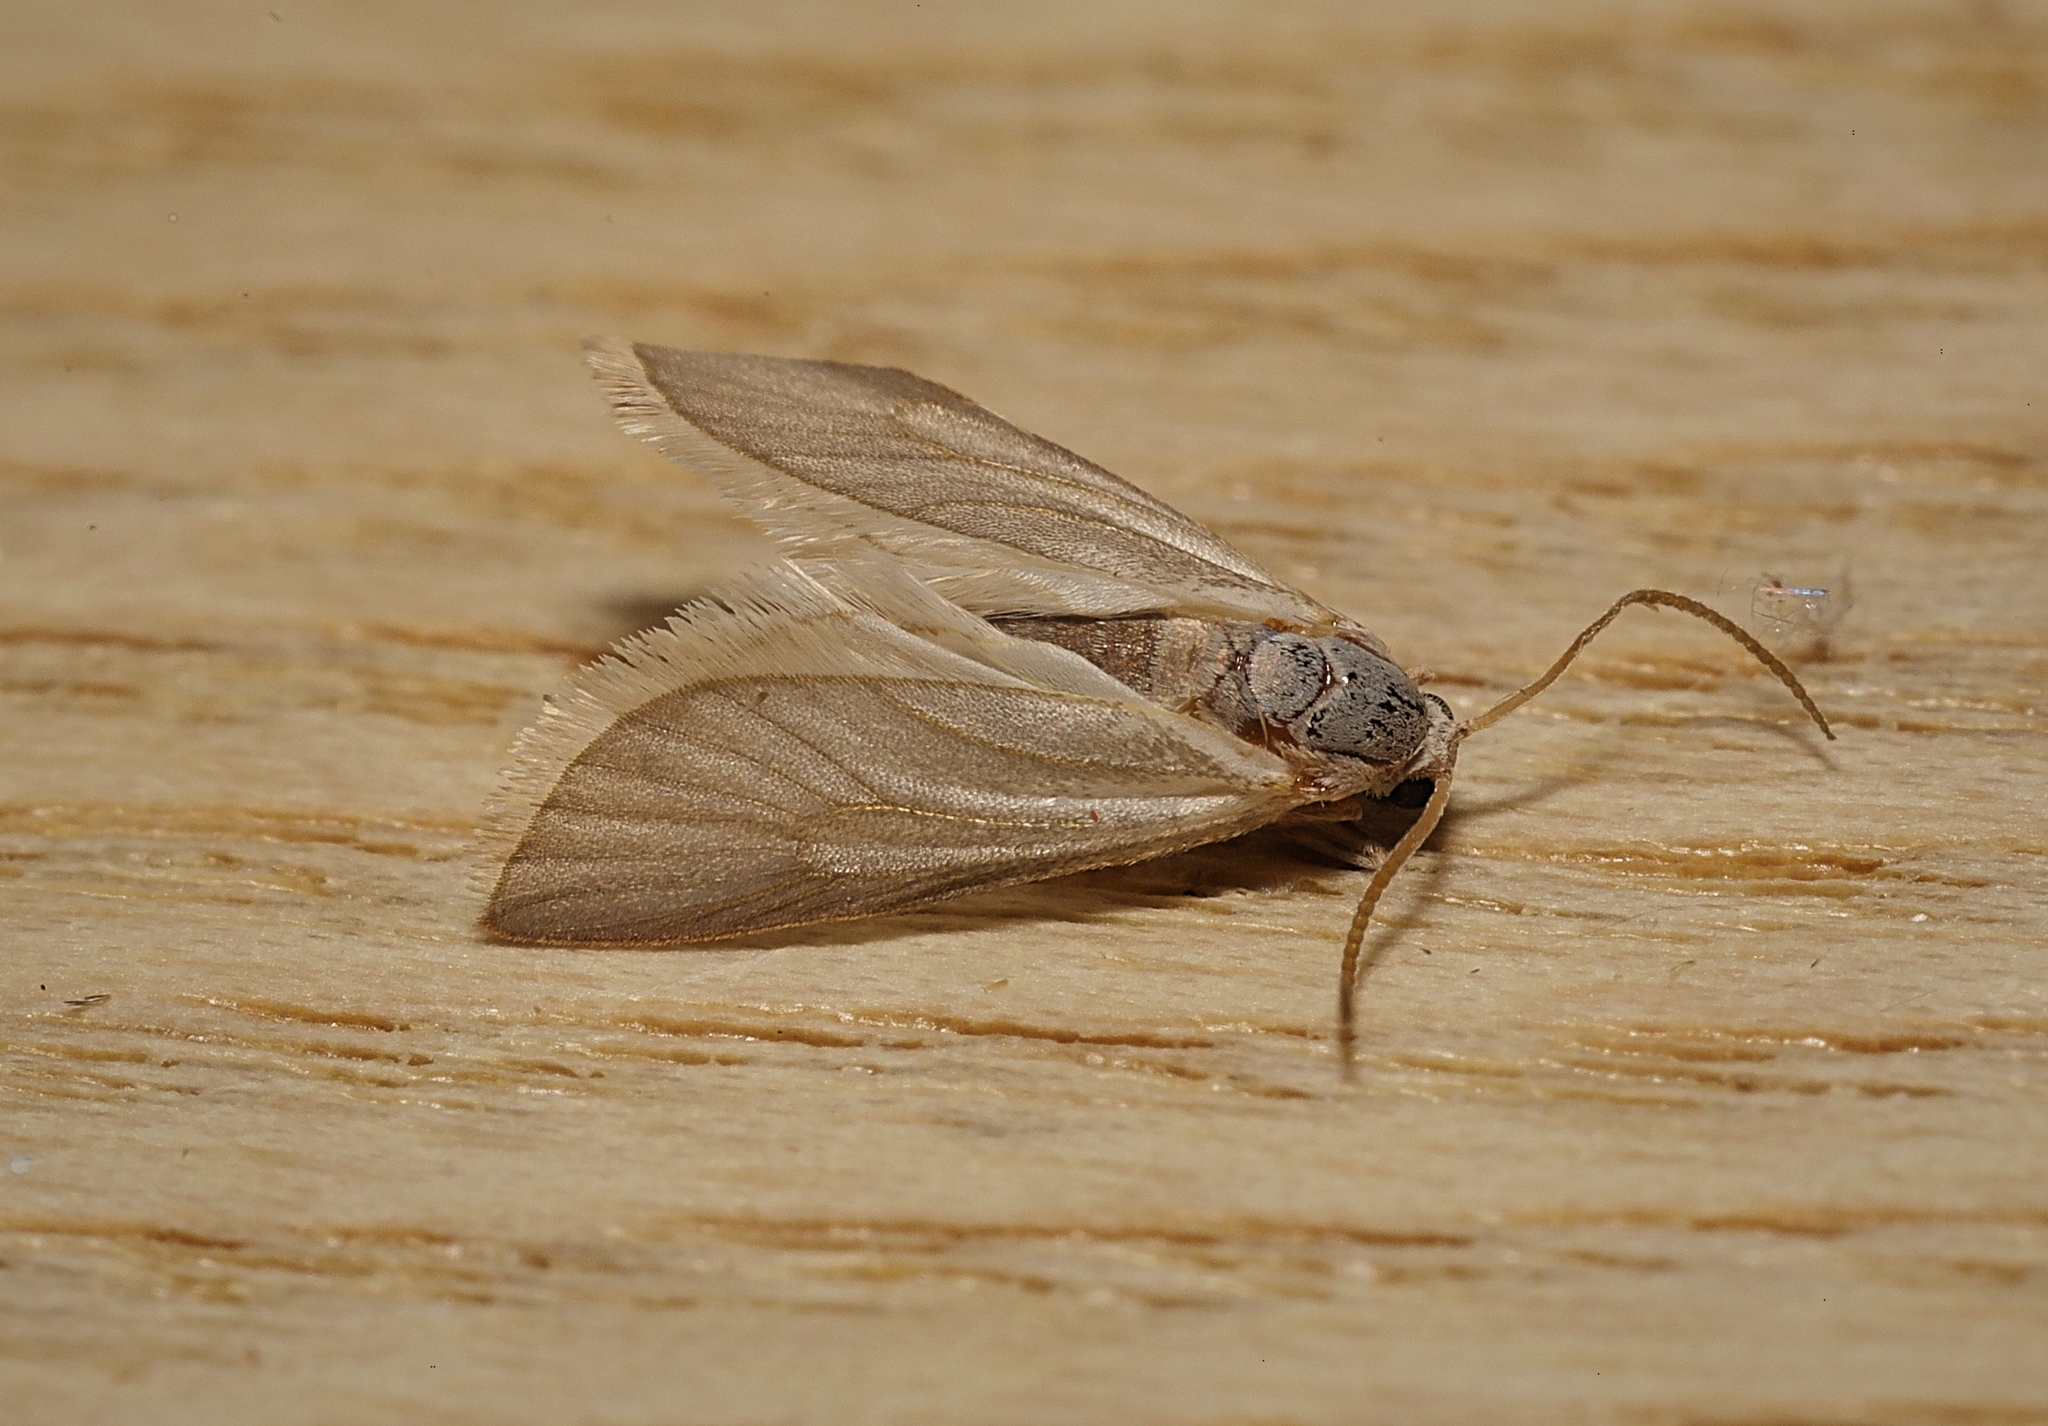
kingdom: Animalia
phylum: Arthropoda
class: Insecta
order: Lepidoptera
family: Crambidae
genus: Acentria
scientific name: Acentria ephemerella
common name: European water moth
